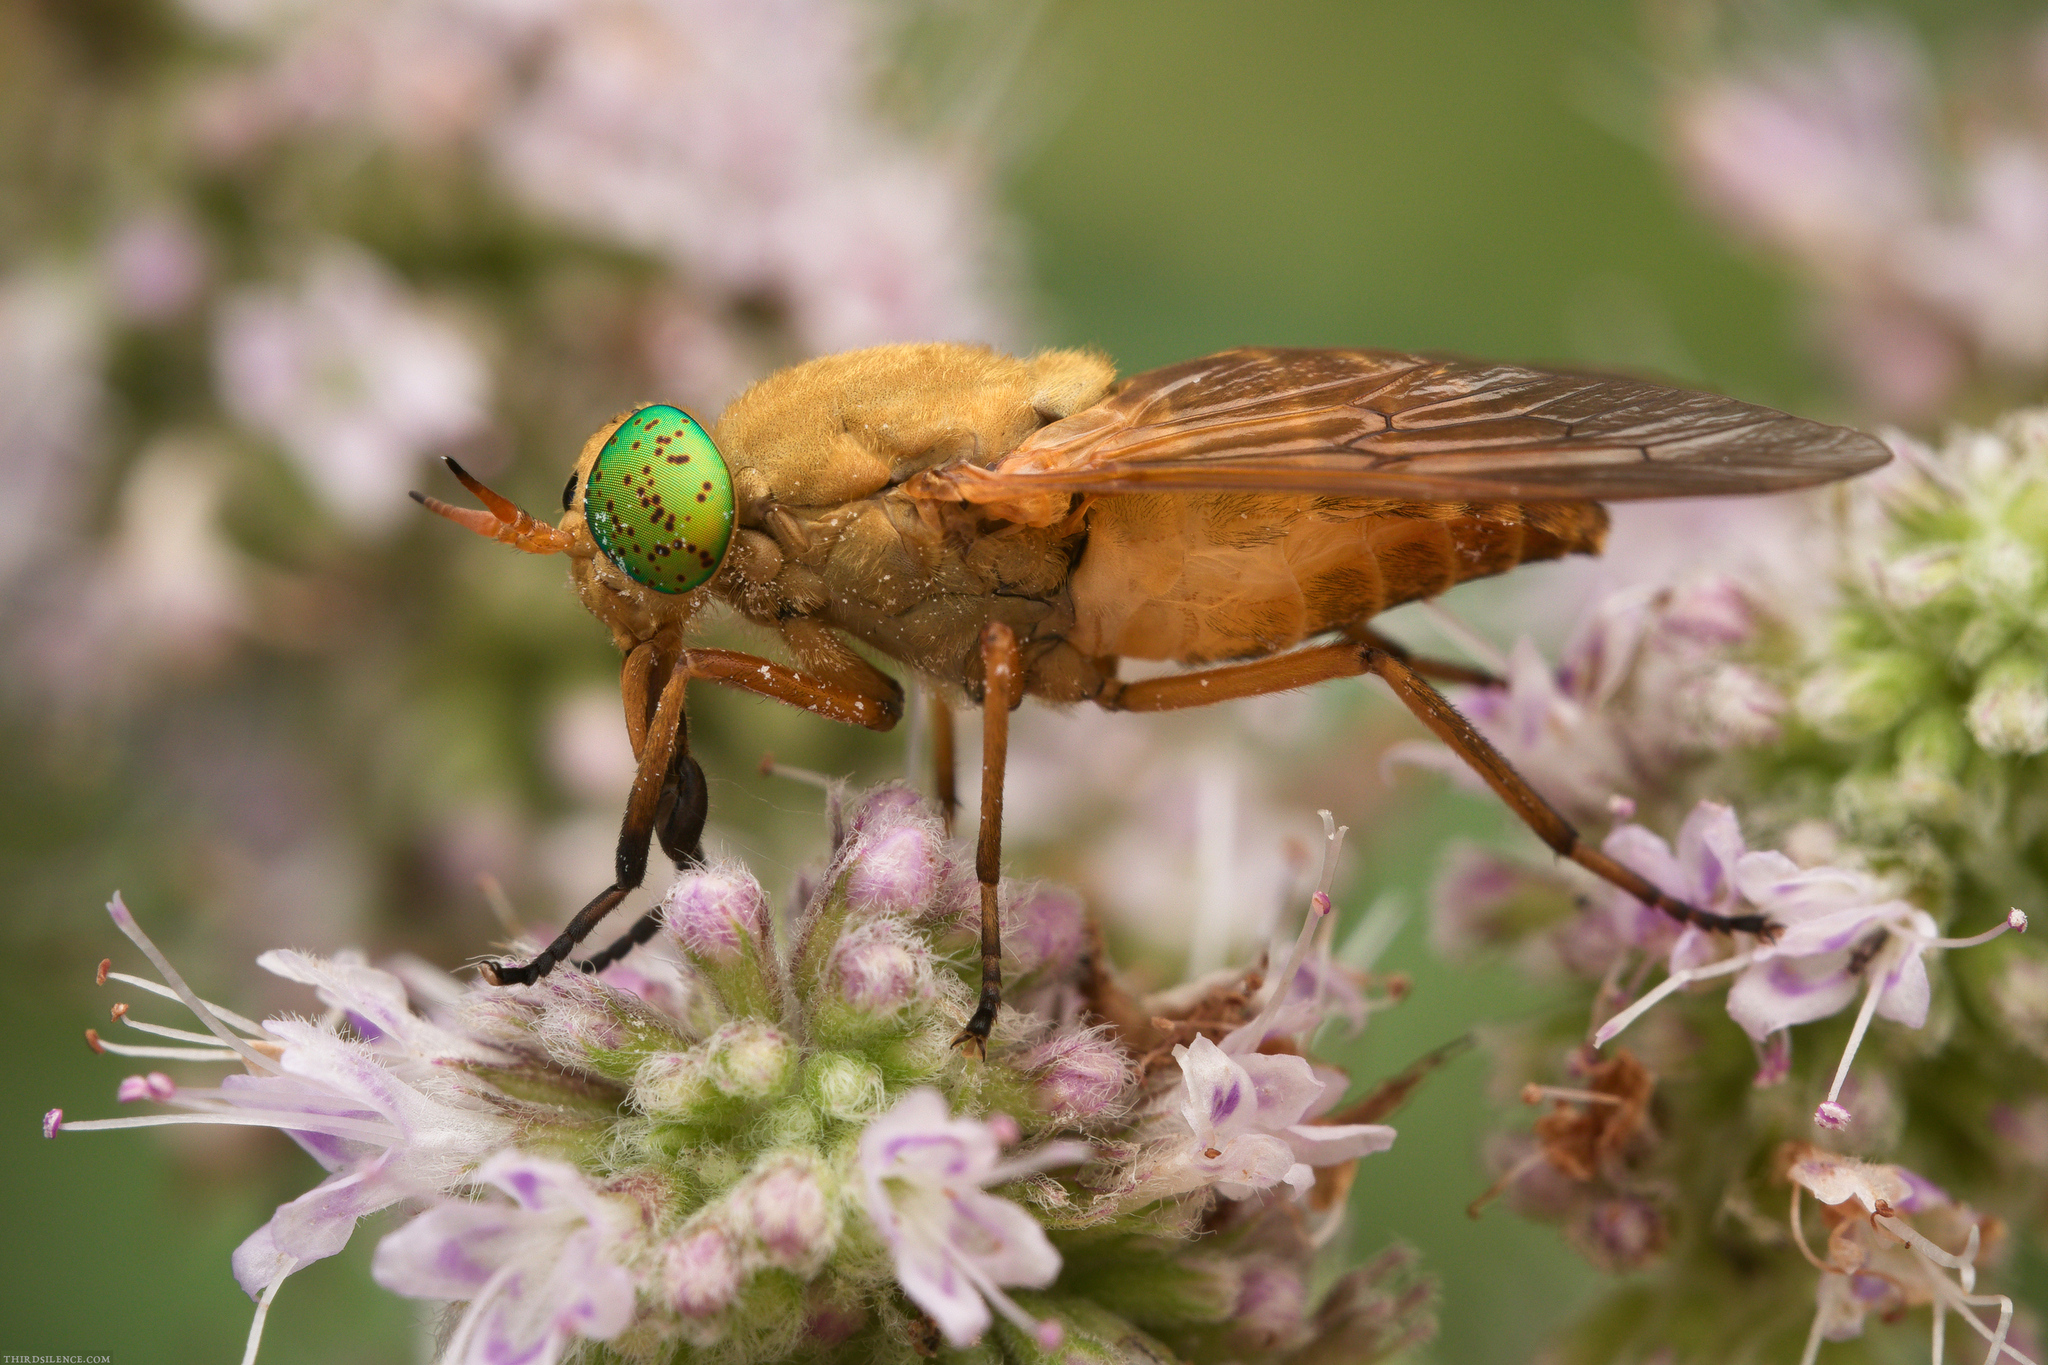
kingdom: Animalia
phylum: Arthropoda
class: Insecta
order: Diptera
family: Tabanidae
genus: Silvius
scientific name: Silvius alpinus
